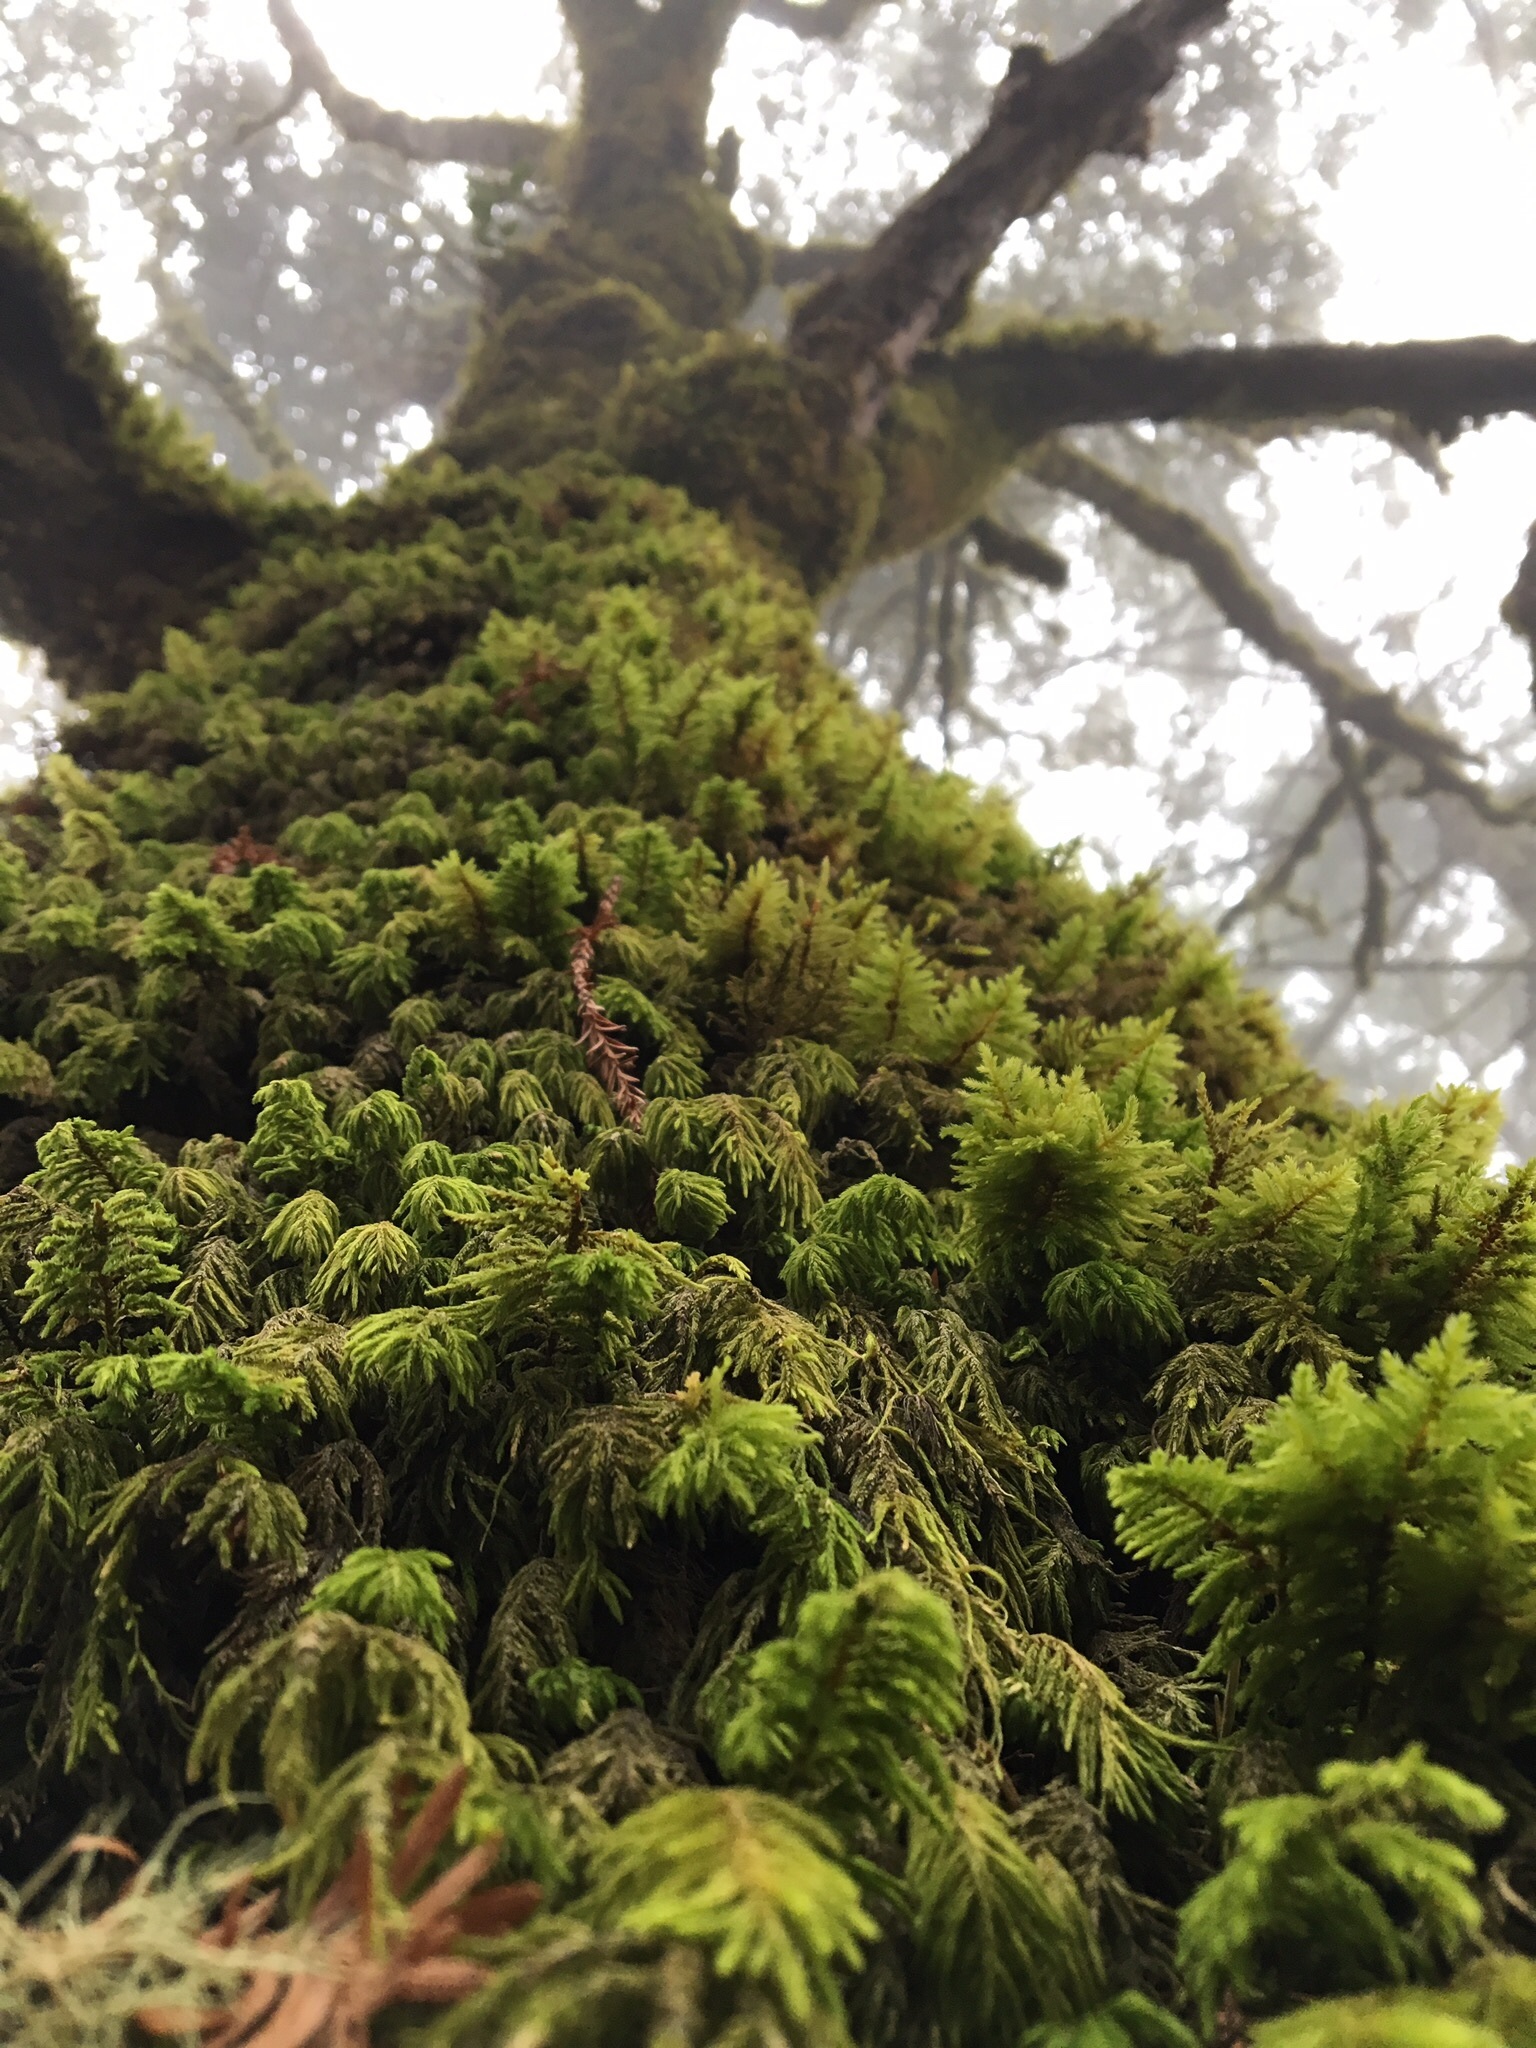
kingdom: Plantae
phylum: Bryophyta
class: Bryopsida
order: Hypnales
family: Cryphaeaceae
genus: Dendroalsia
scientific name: Dendroalsia abietina
